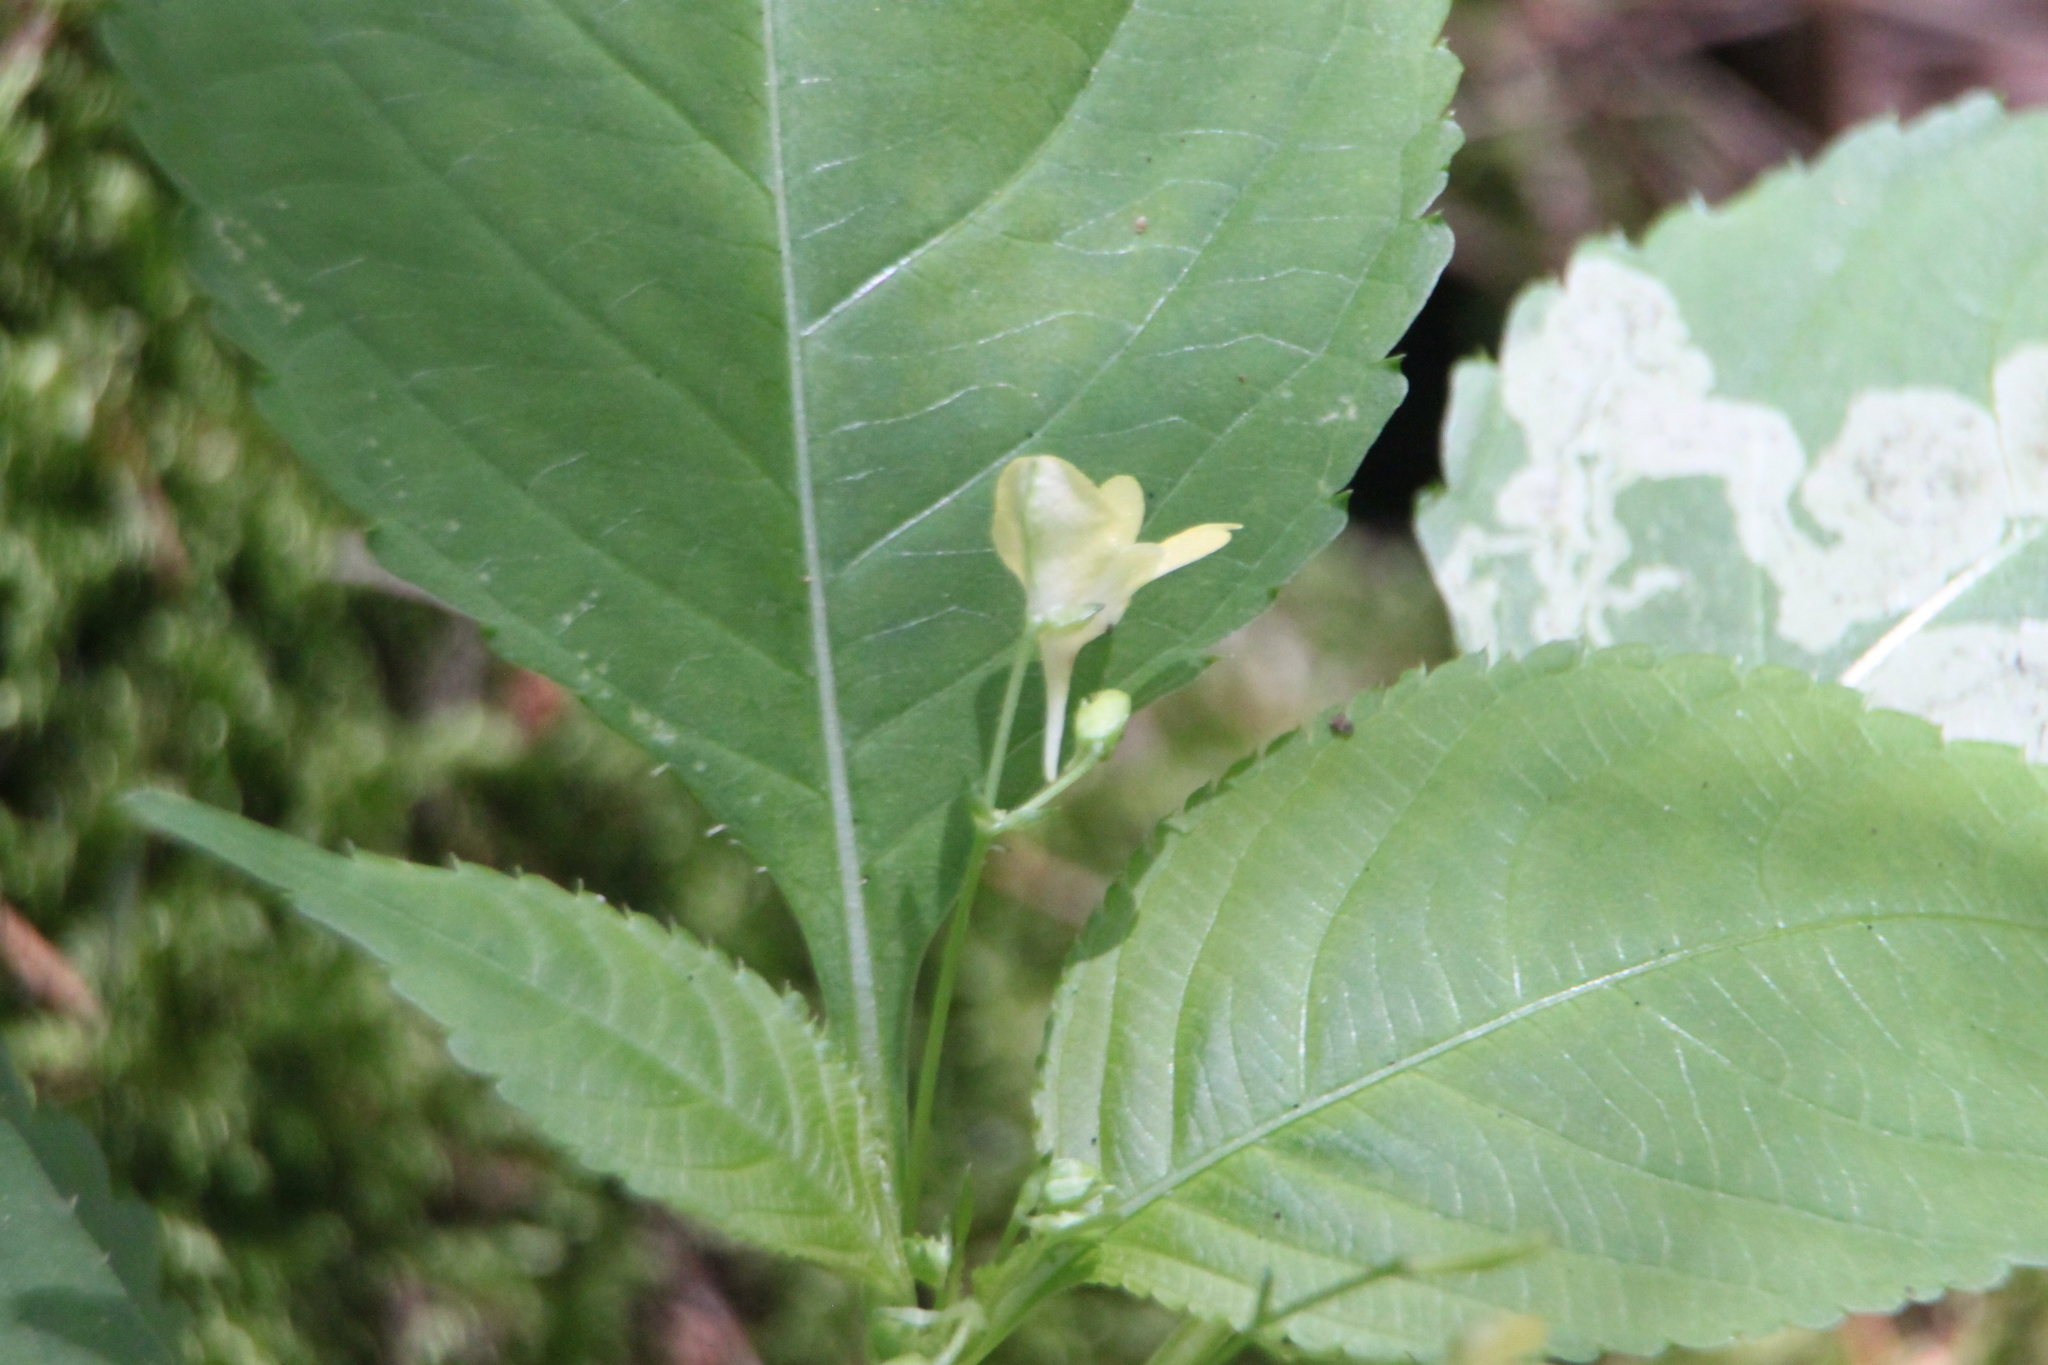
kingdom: Plantae
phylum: Tracheophyta
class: Magnoliopsida
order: Ericales
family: Balsaminaceae
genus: Impatiens
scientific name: Impatiens parviflora
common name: Small balsam
